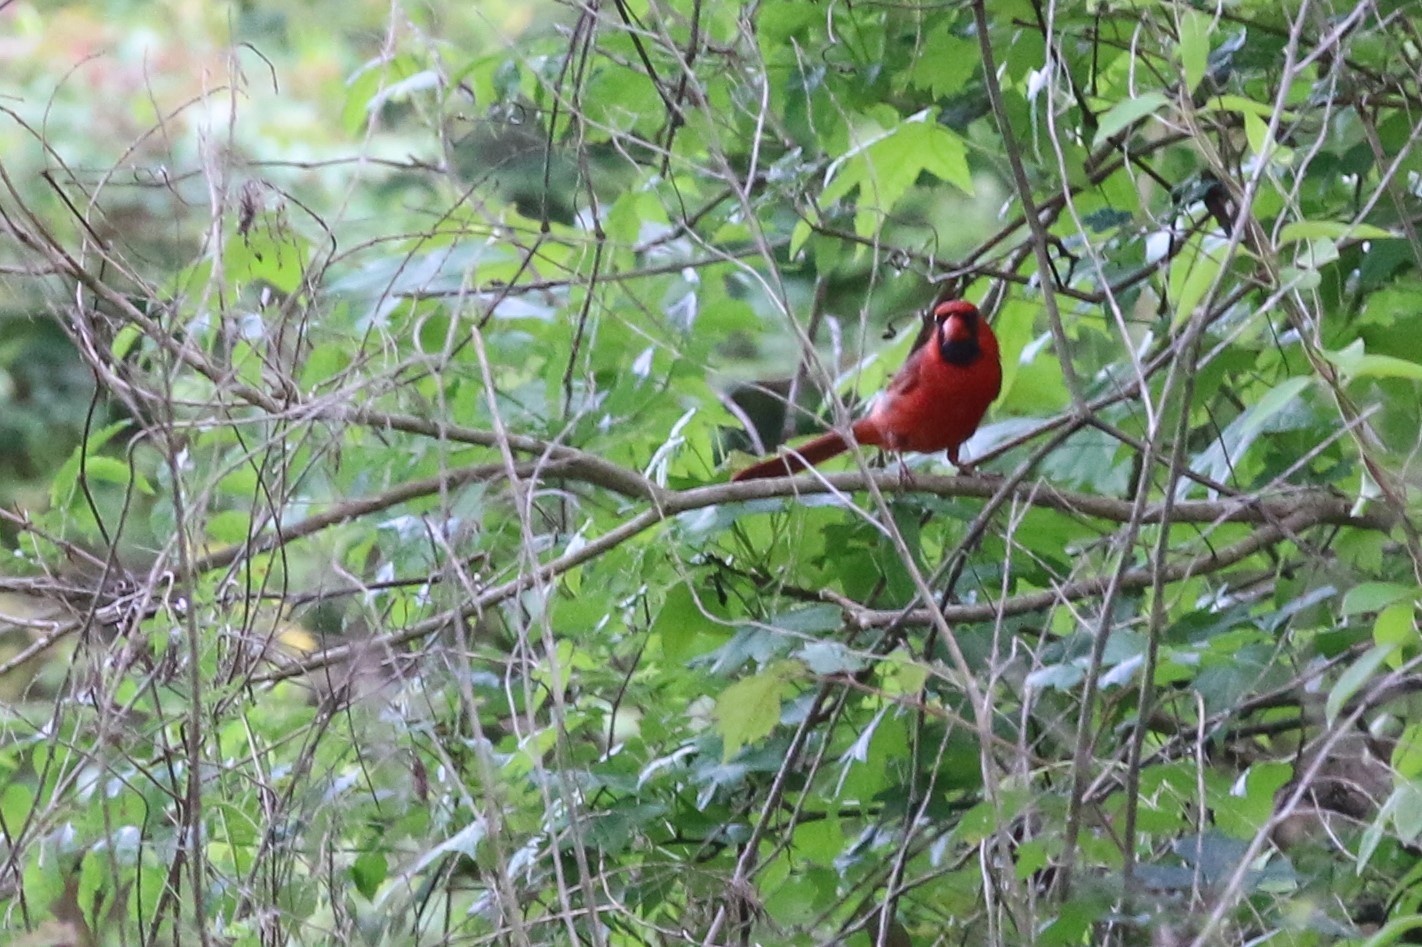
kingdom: Animalia
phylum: Chordata
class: Aves
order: Passeriformes
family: Cardinalidae
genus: Cardinalis
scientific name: Cardinalis cardinalis
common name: Northern cardinal
